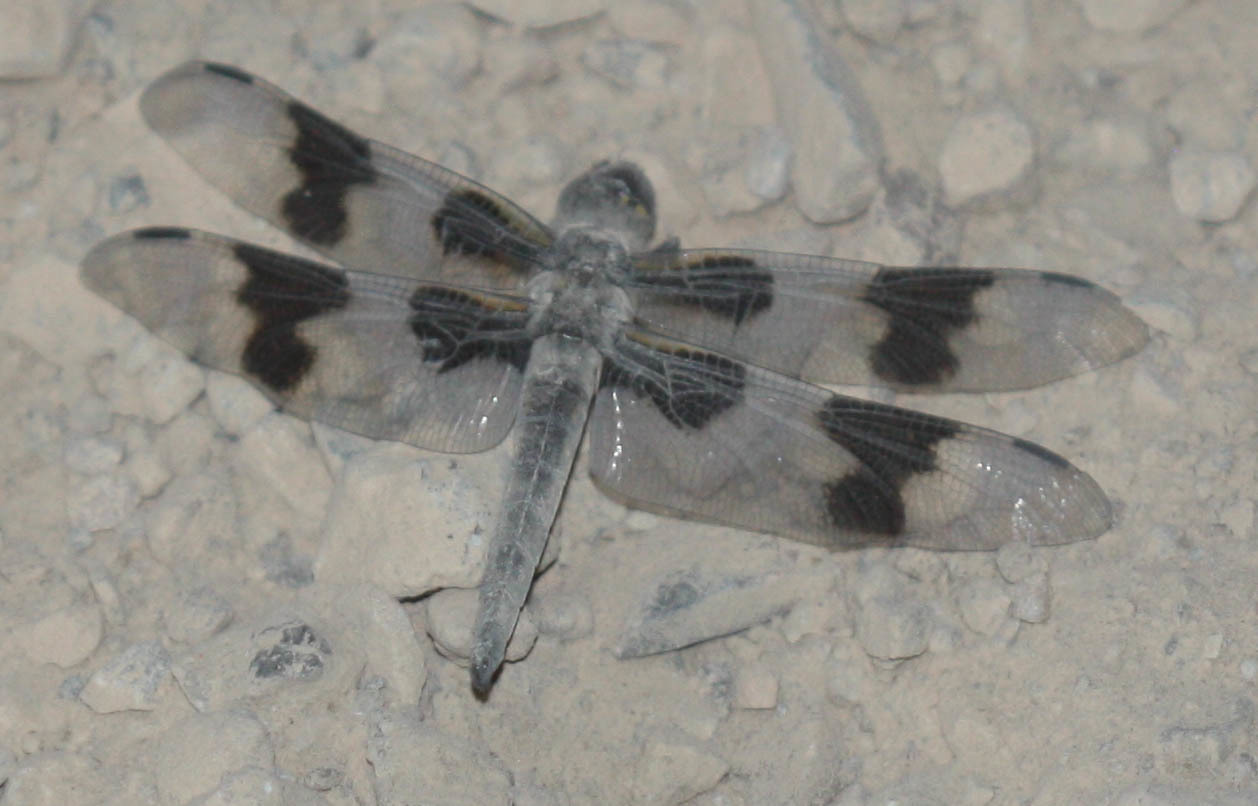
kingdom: Animalia
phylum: Arthropoda
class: Insecta
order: Odonata
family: Libellulidae
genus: Libellula
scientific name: Libellula forensis
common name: Eight-spotted skimmer
